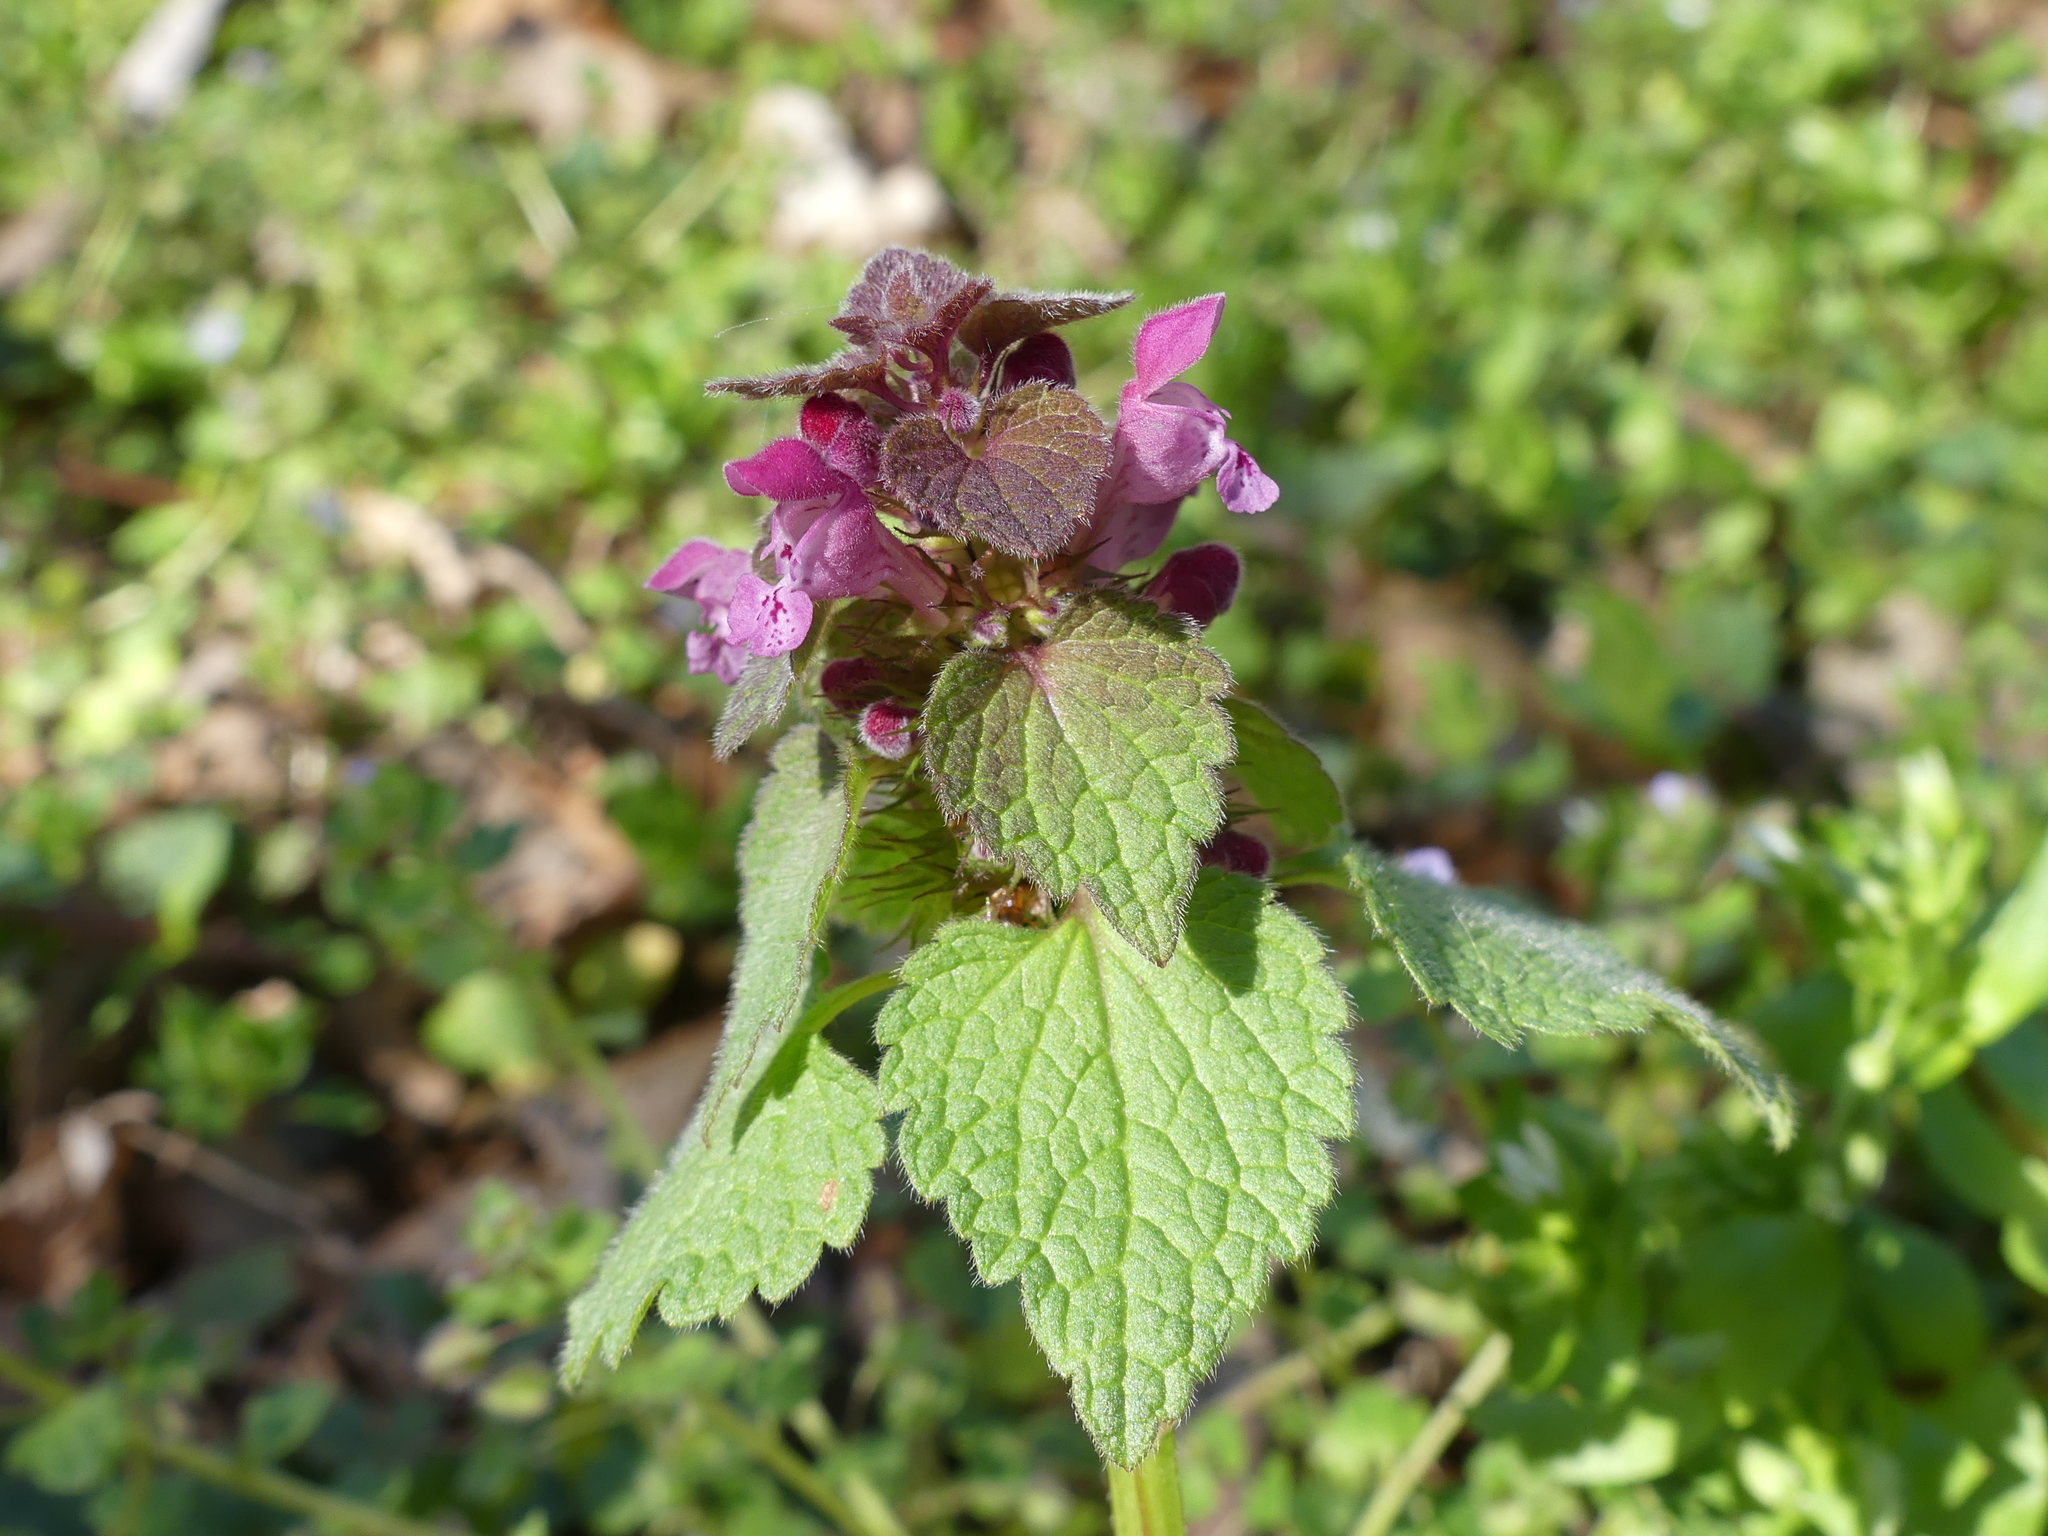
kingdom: Plantae
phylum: Tracheophyta
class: Magnoliopsida
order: Lamiales
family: Lamiaceae
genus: Lamium
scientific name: Lamium purpureum
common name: Red dead-nettle
